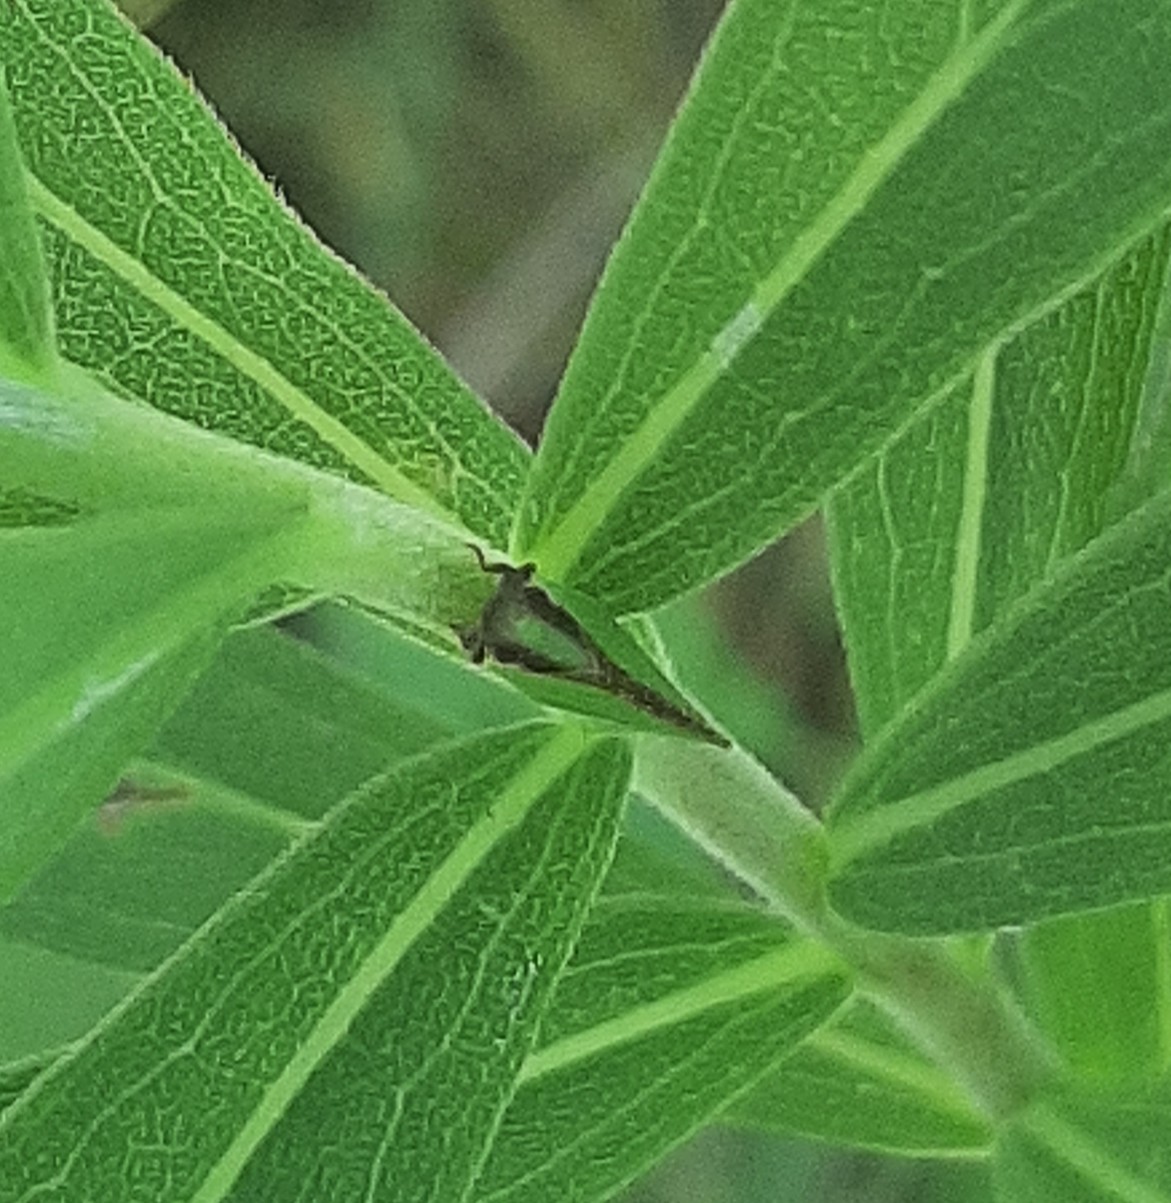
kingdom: Animalia
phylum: Arthropoda
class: Insecta
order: Hemiptera
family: Acanaloniidae
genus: Acanalonia
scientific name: Acanalonia bivittata
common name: Two-striped planthopper
